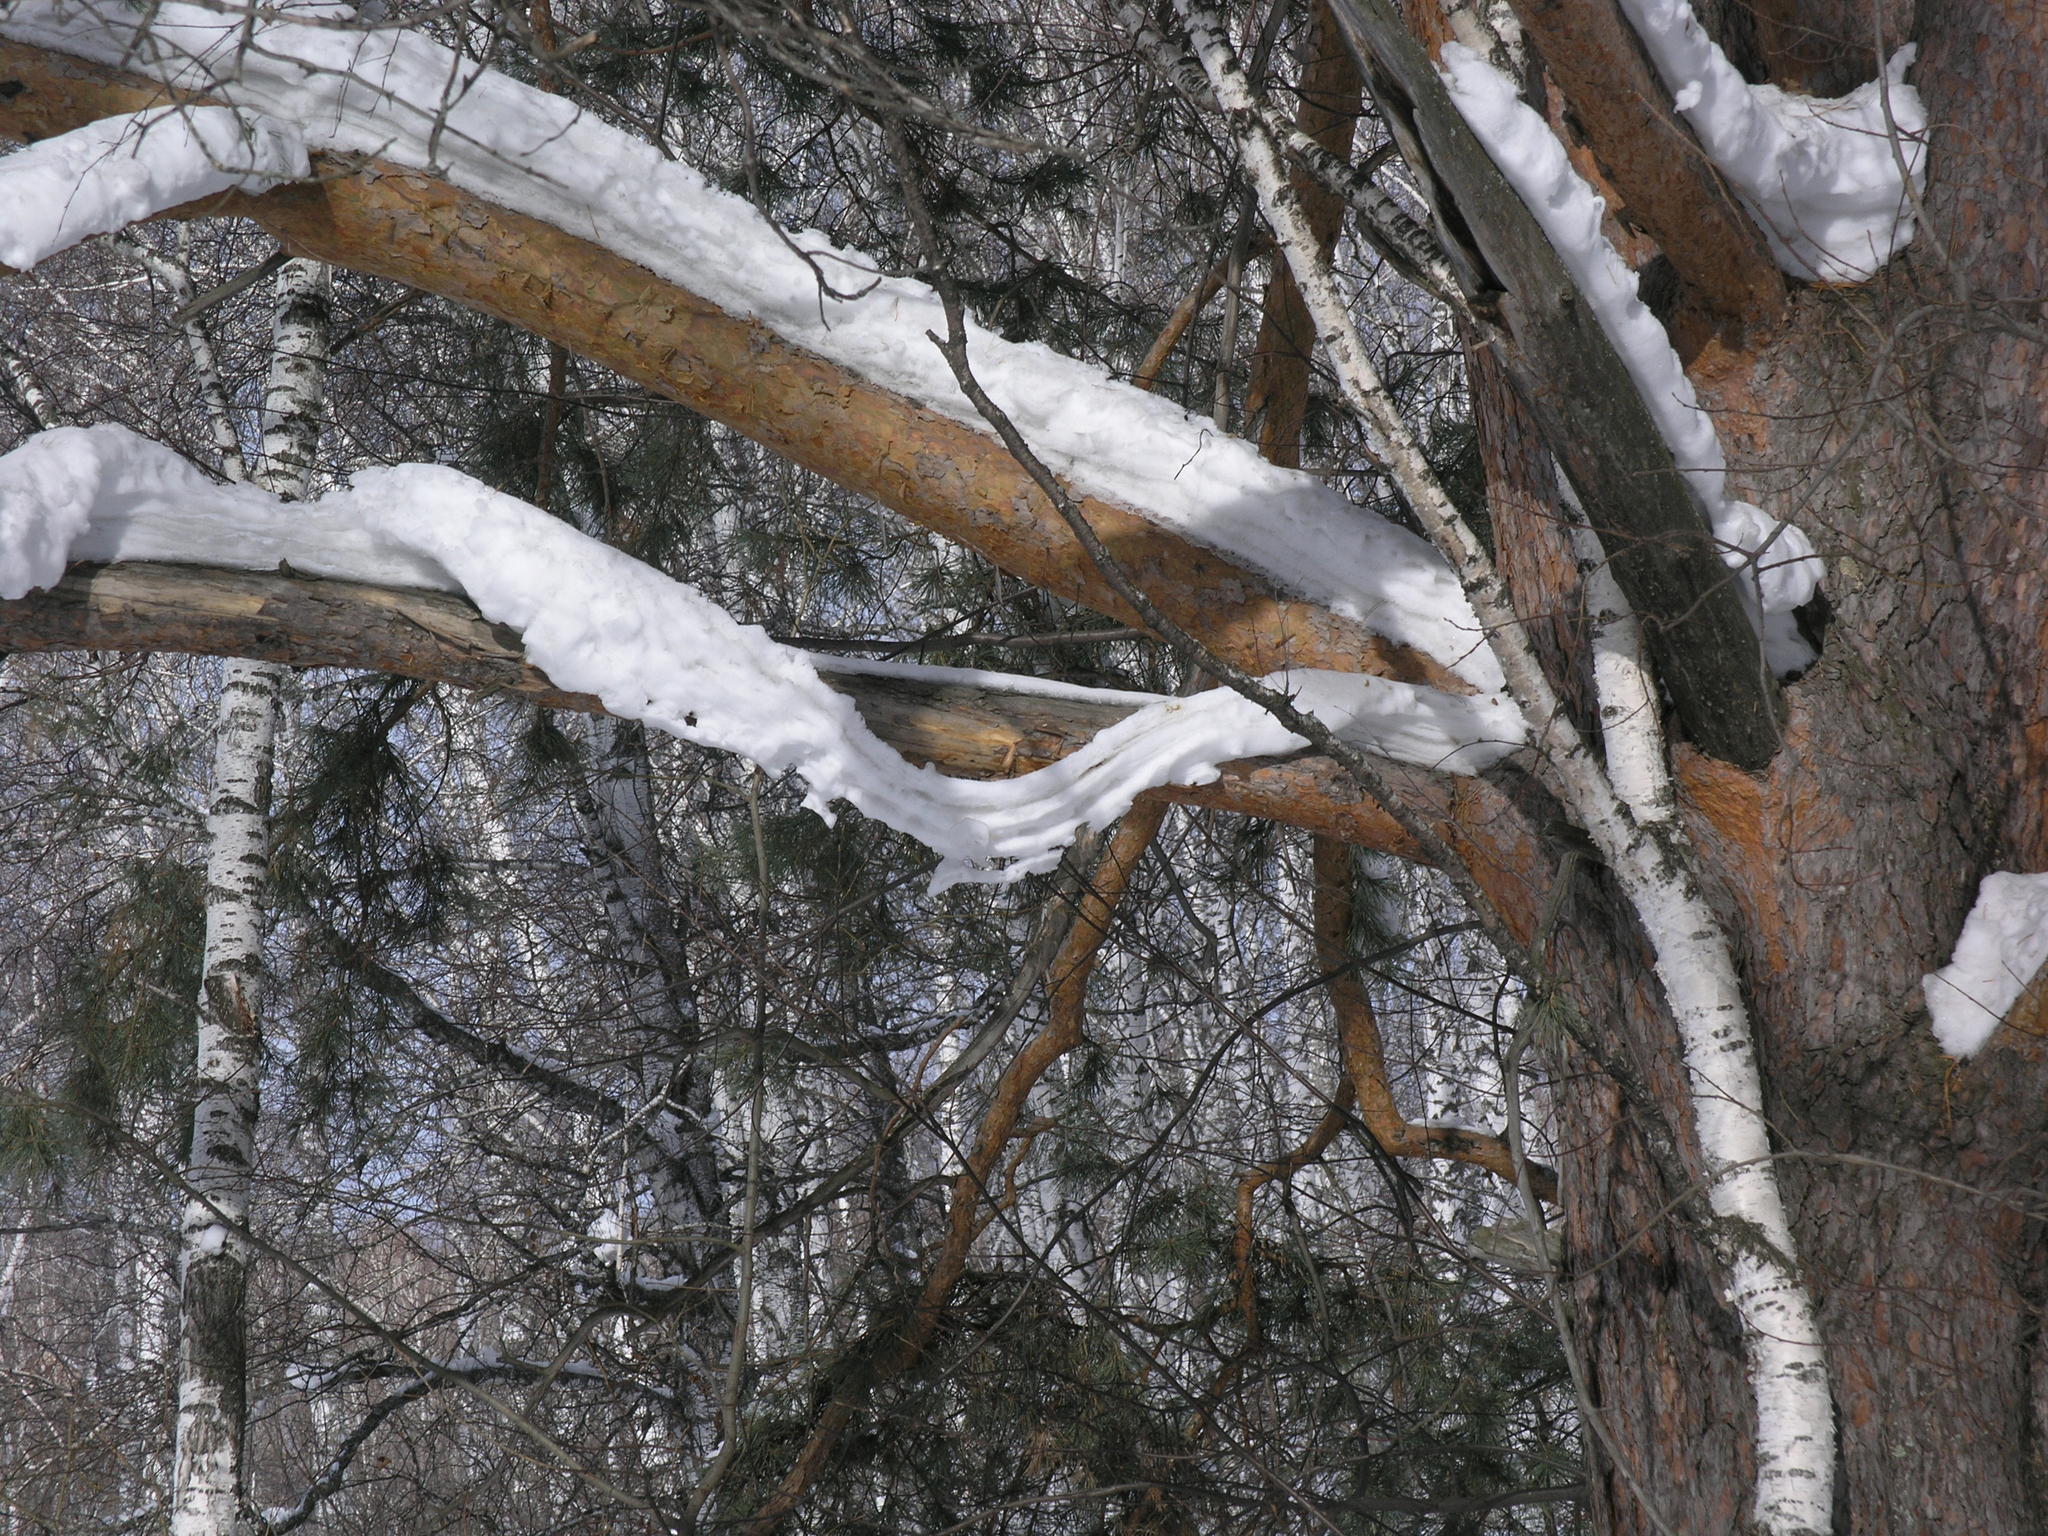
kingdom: Plantae
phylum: Tracheophyta
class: Pinopsida
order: Pinales
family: Pinaceae
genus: Pinus
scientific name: Pinus sylvestris
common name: Scots pine
